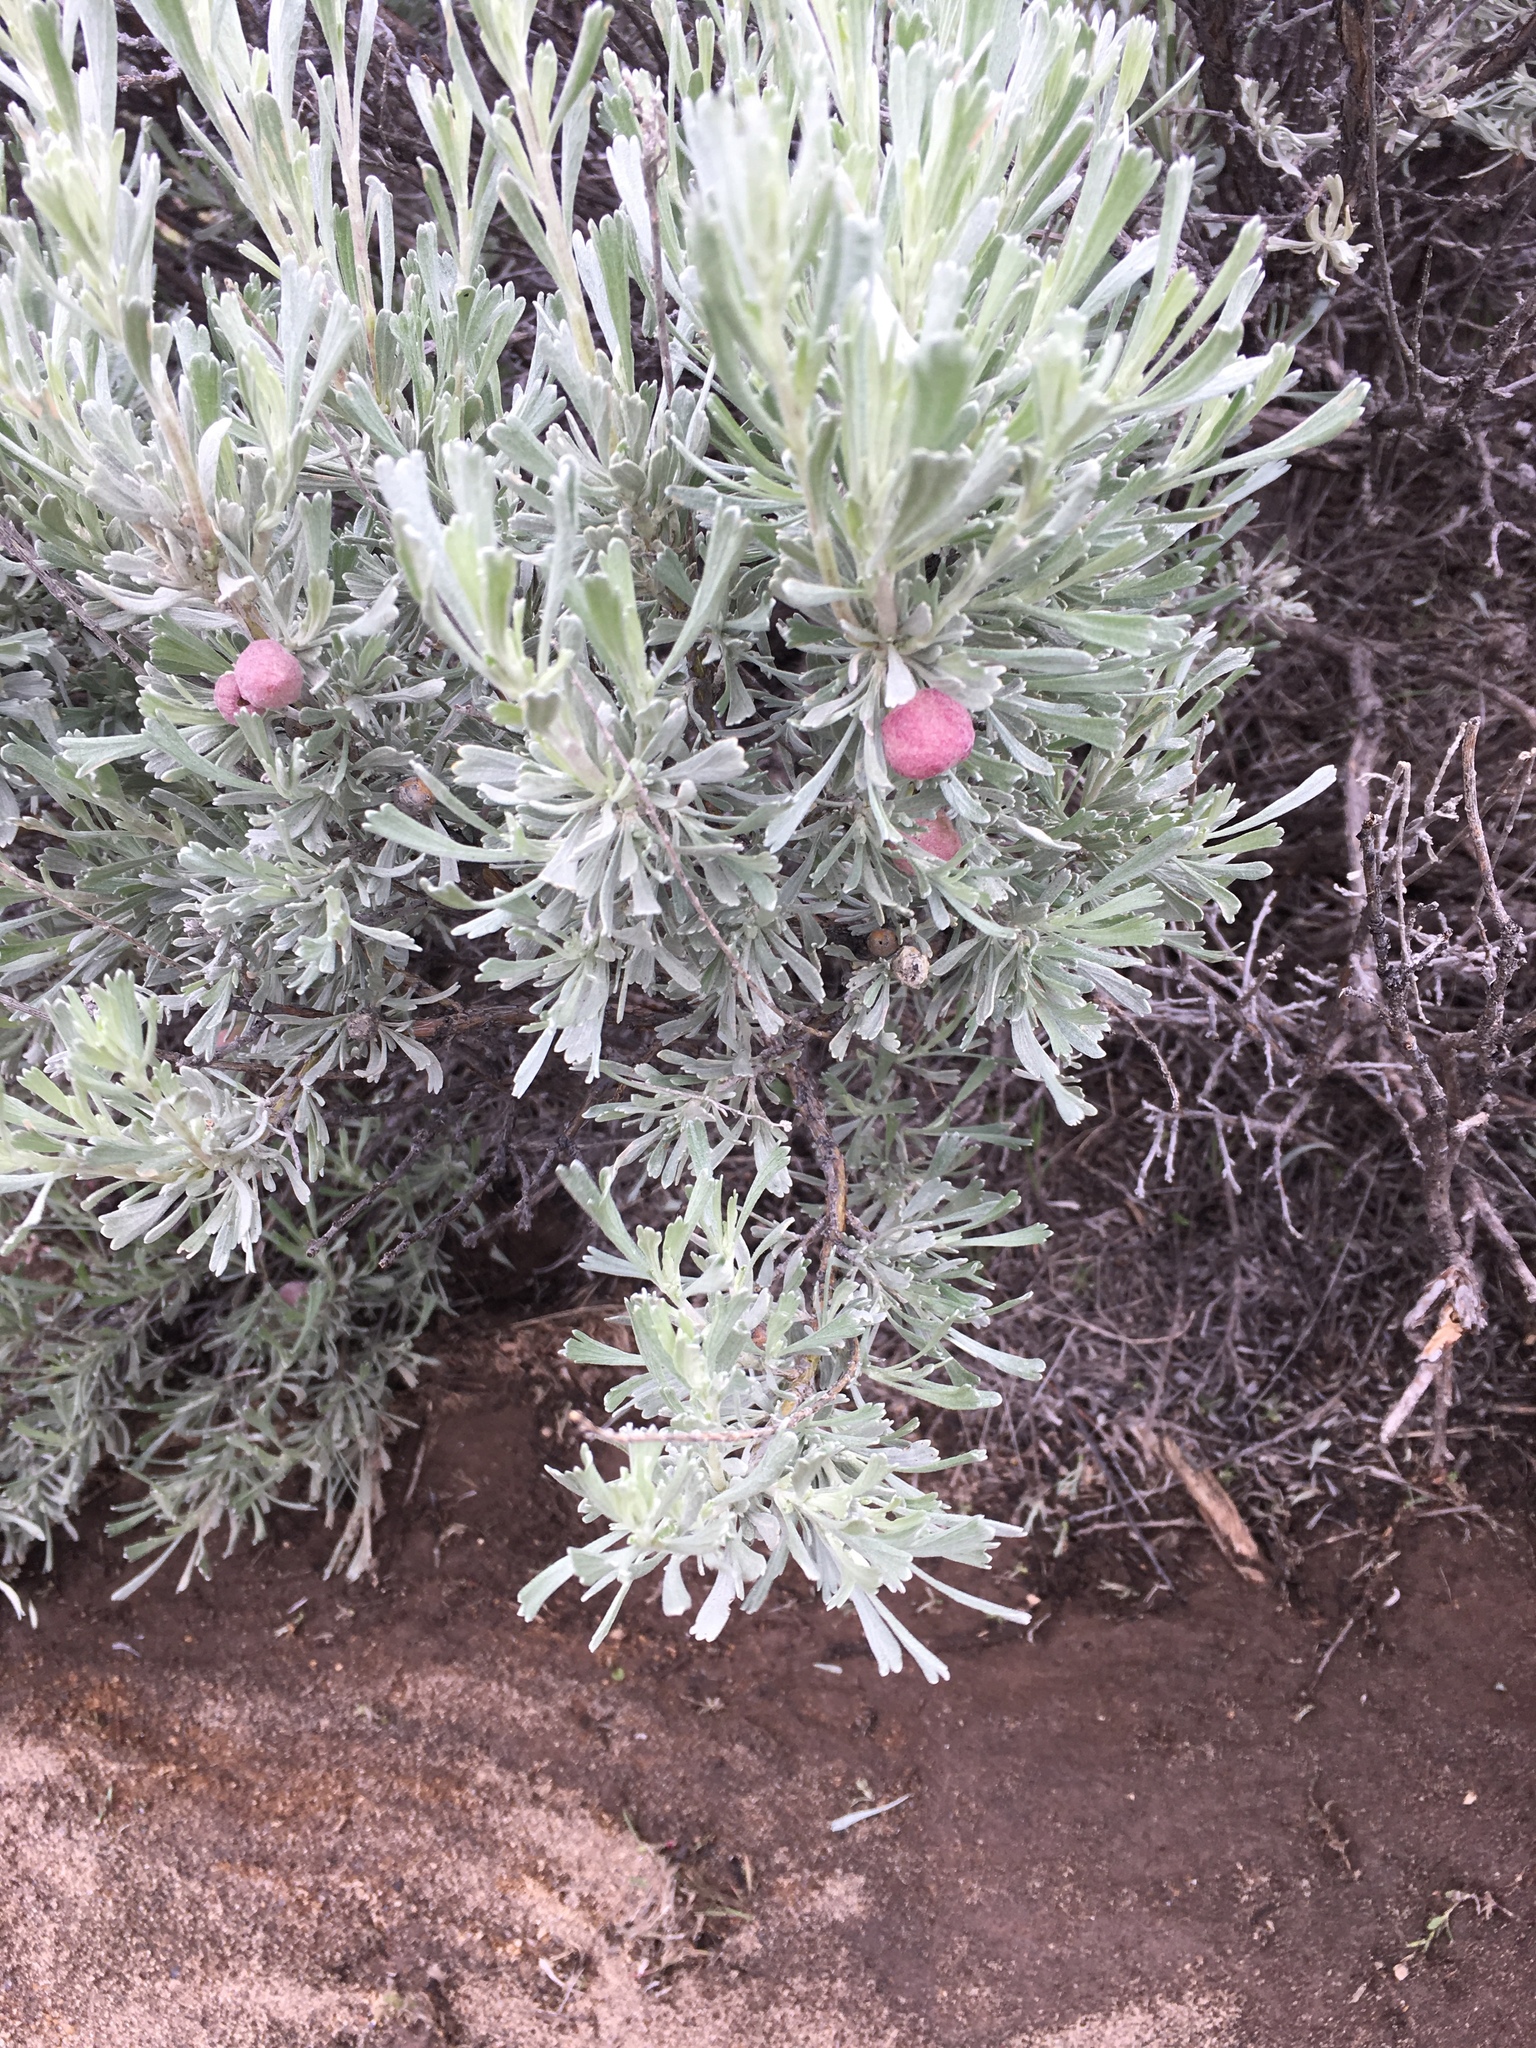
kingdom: Plantae
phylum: Tracheophyta
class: Magnoliopsida
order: Asterales
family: Asteraceae
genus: Artemisia
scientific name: Artemisia tridentata
